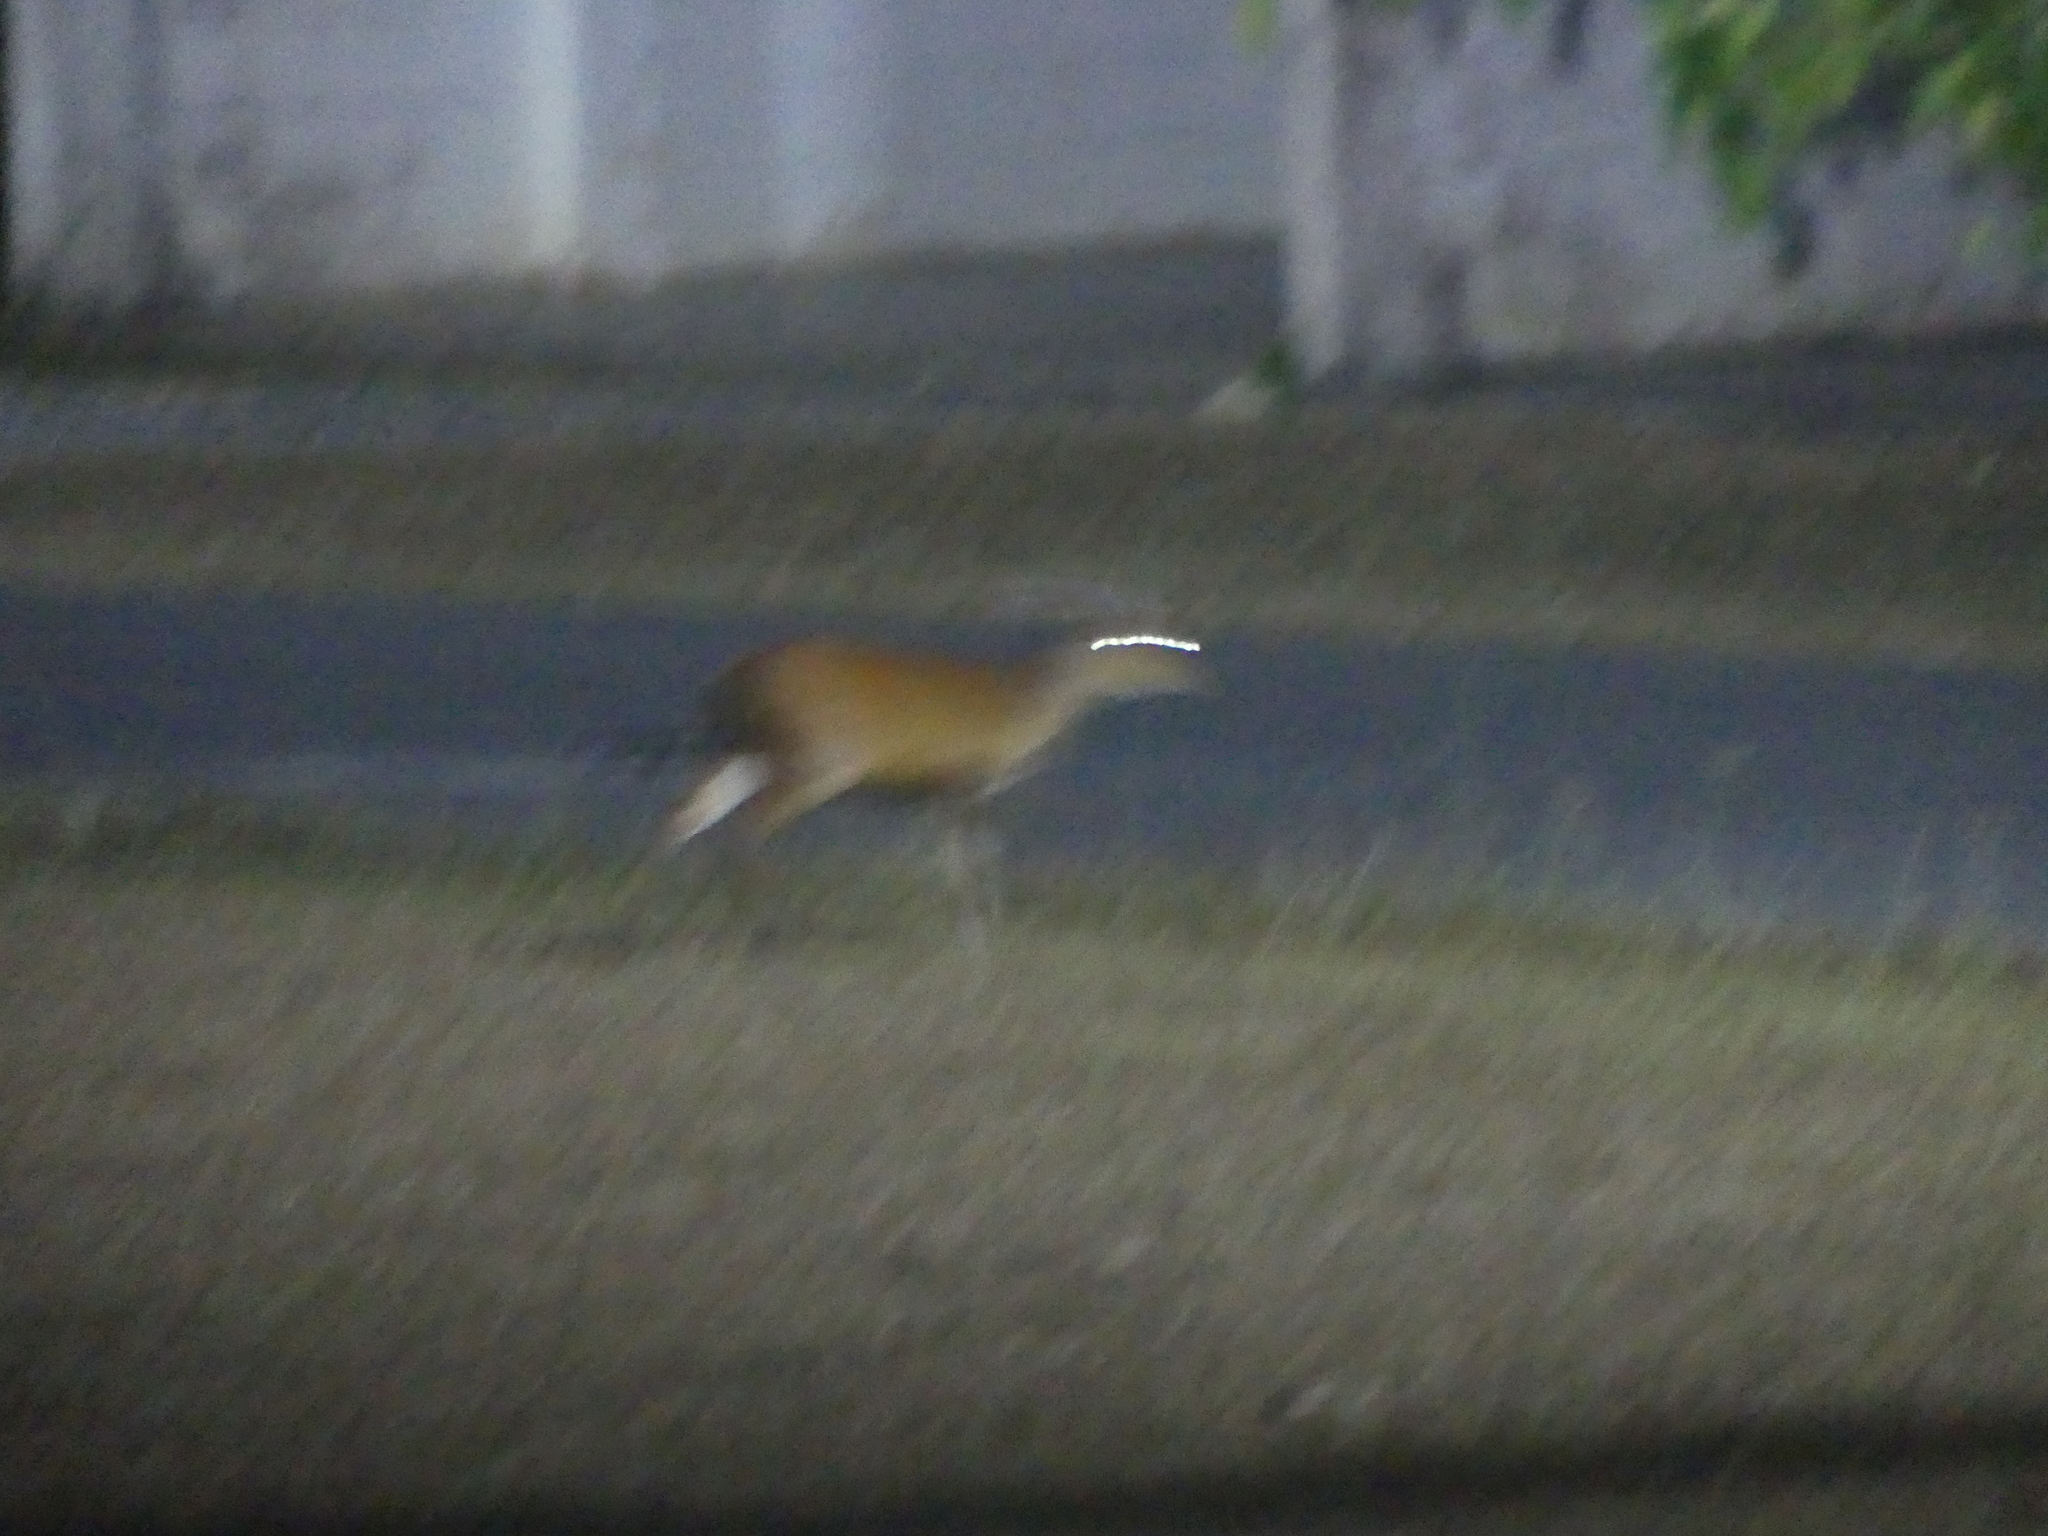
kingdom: Animalia
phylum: Chordata
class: Mammalia
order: Artiodactyla
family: Cervidae
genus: Muntiacus
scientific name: Muntiacus muntjak
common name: Indian muntjac
